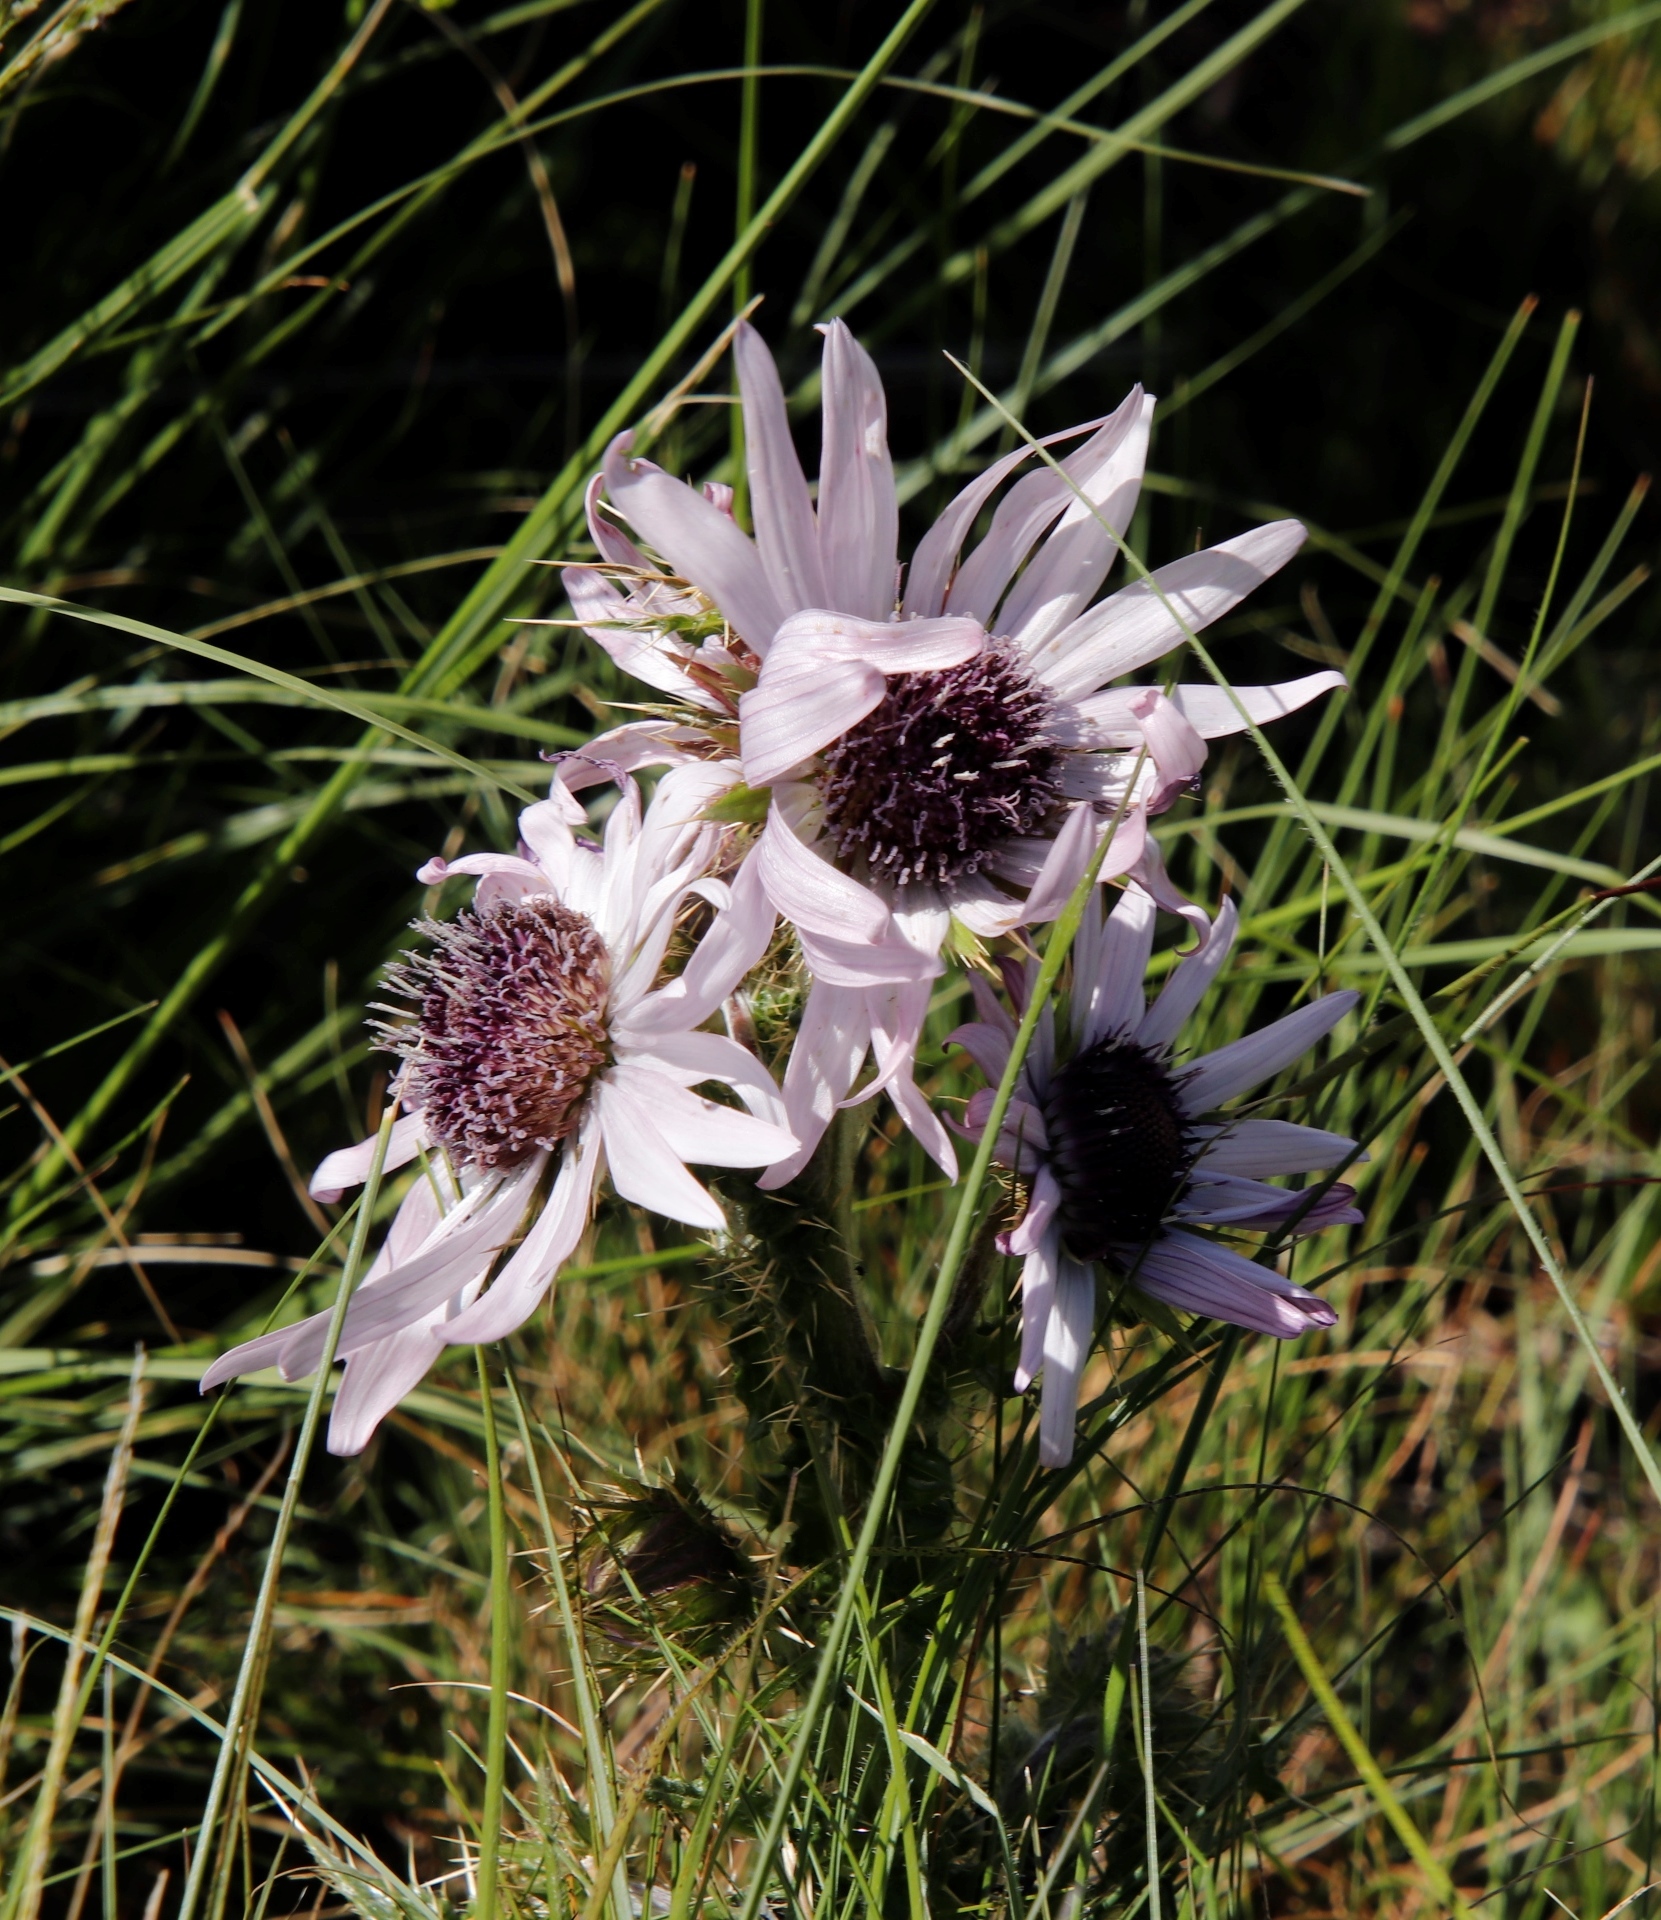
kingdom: Plantae
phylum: Tracheophyta
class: Magnoliopsida
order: Asterales
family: Asteraceae
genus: Berkheya
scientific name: Berkheya purpurea
